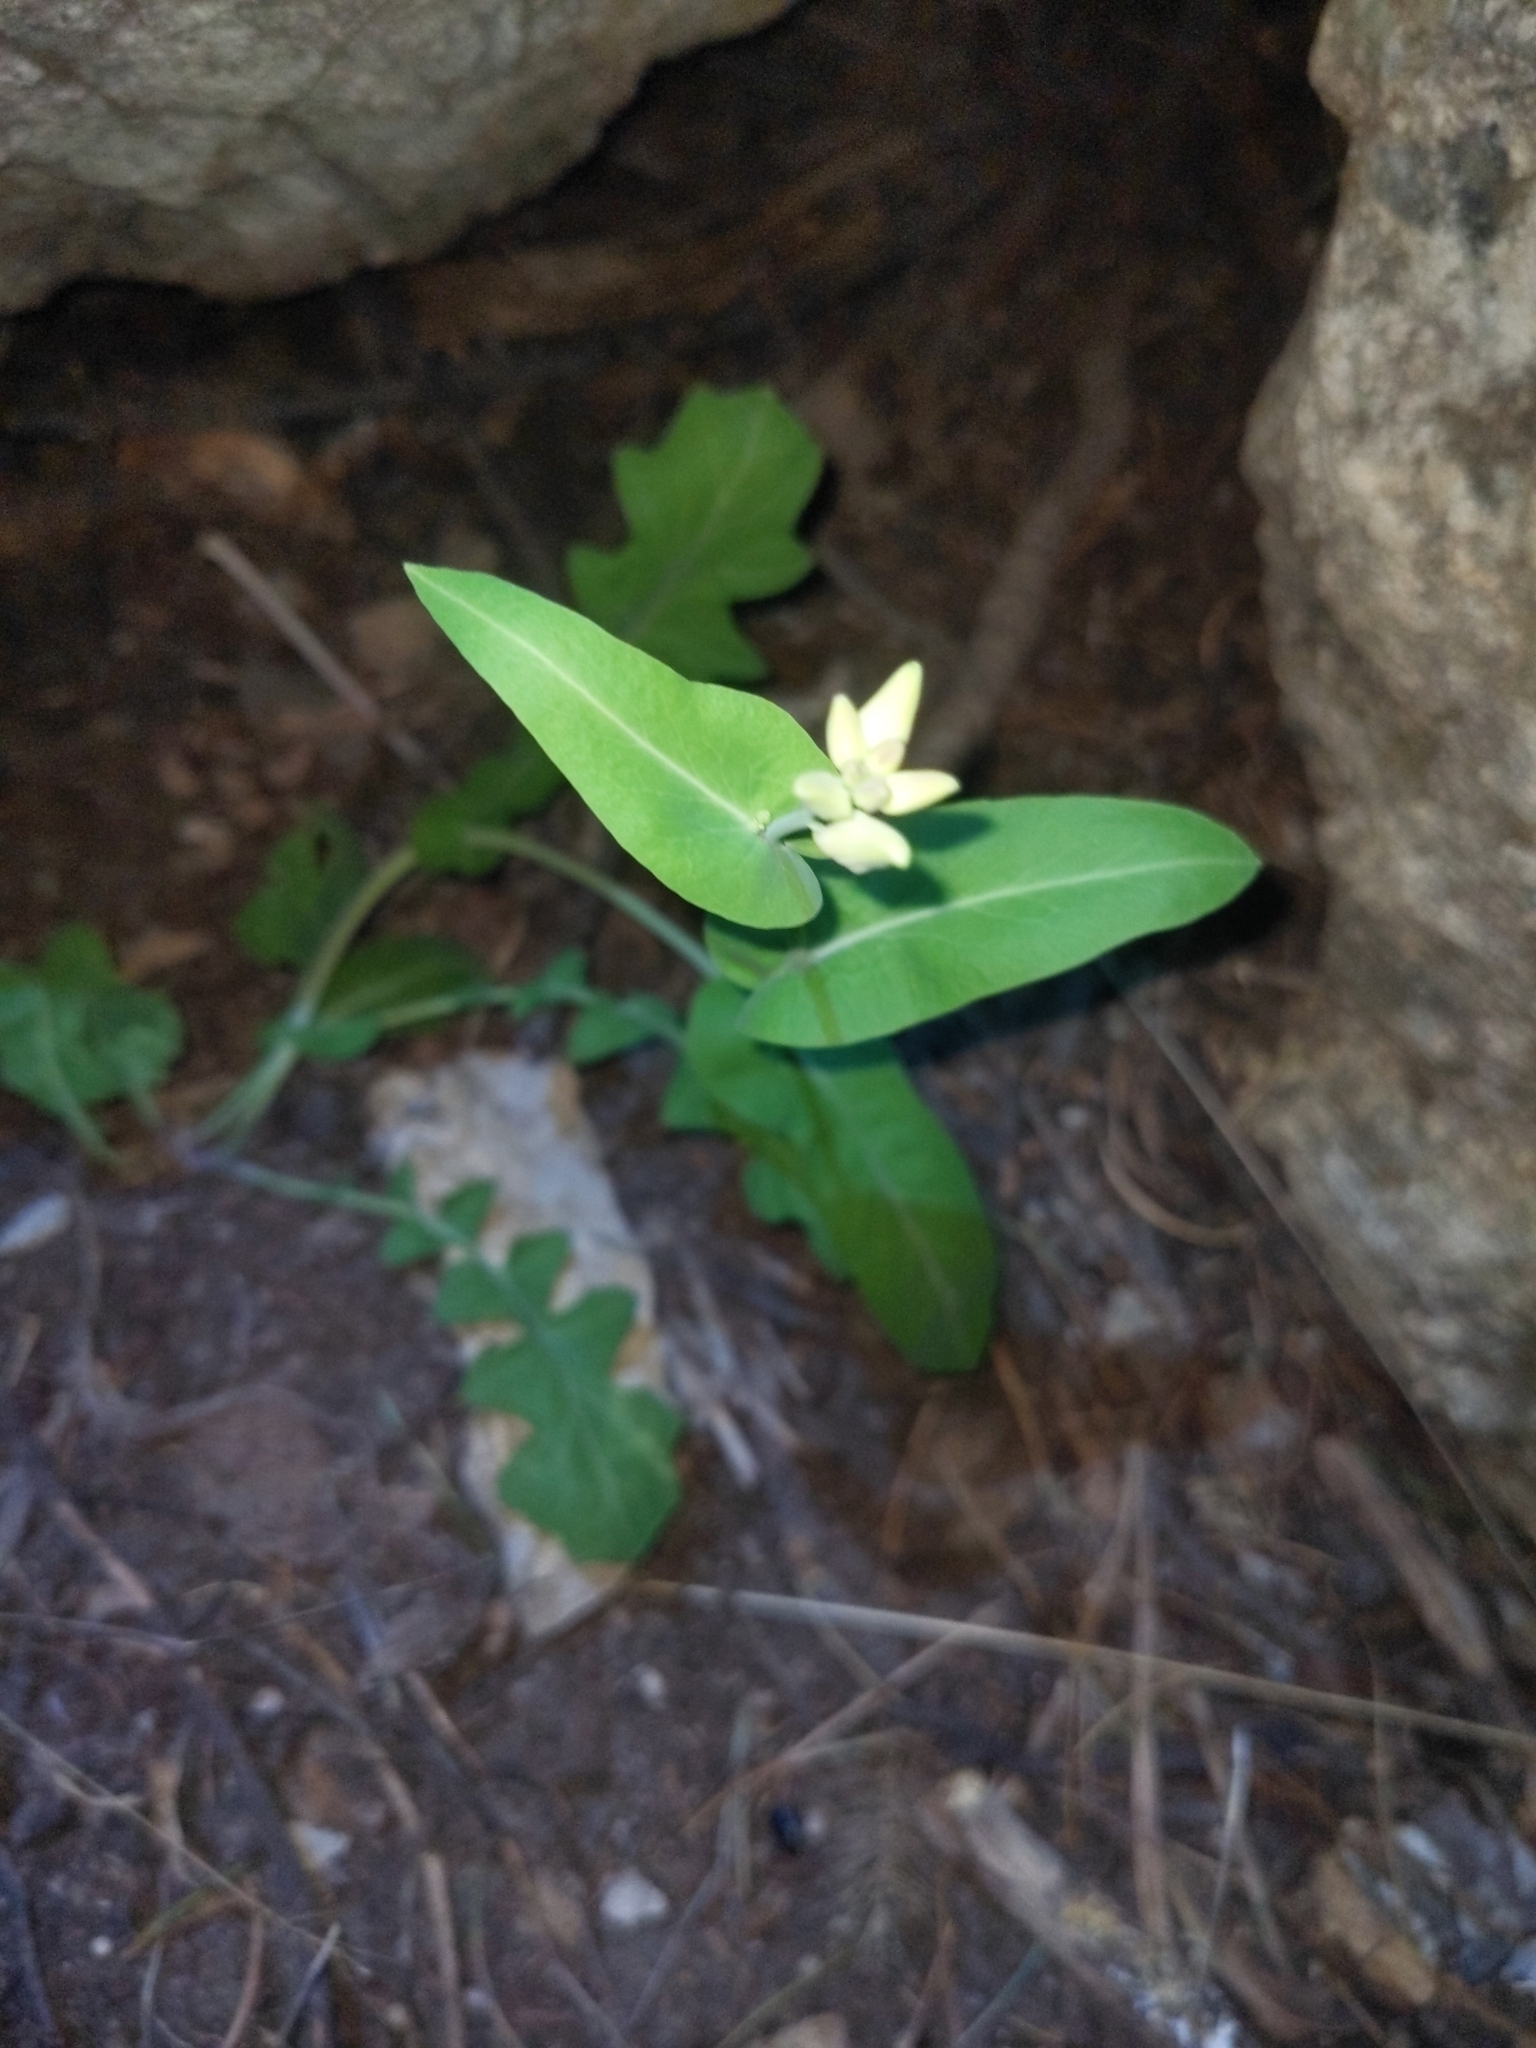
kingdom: Plantae
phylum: Tracheophyta
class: Magnoliopsida
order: Brassicales
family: Brassicaceae
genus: Streptanthus
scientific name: Streptanthus carinatus
